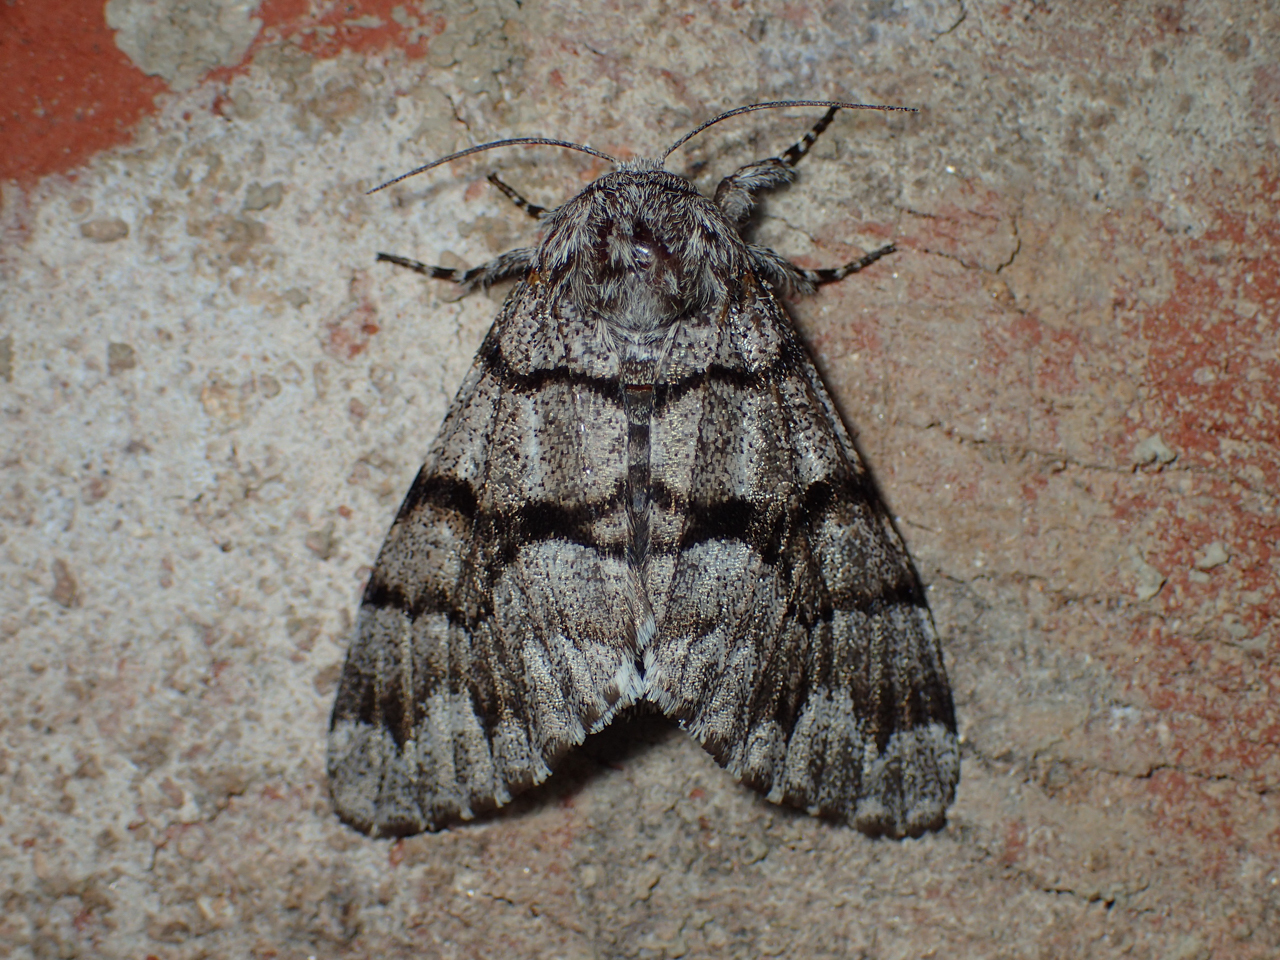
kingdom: Animalia
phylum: Arthropoda
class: Insecta
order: Lepidoptera
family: Noctuidae
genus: Panthea
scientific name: Panthea furcilla
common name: Eastern panthea moth
